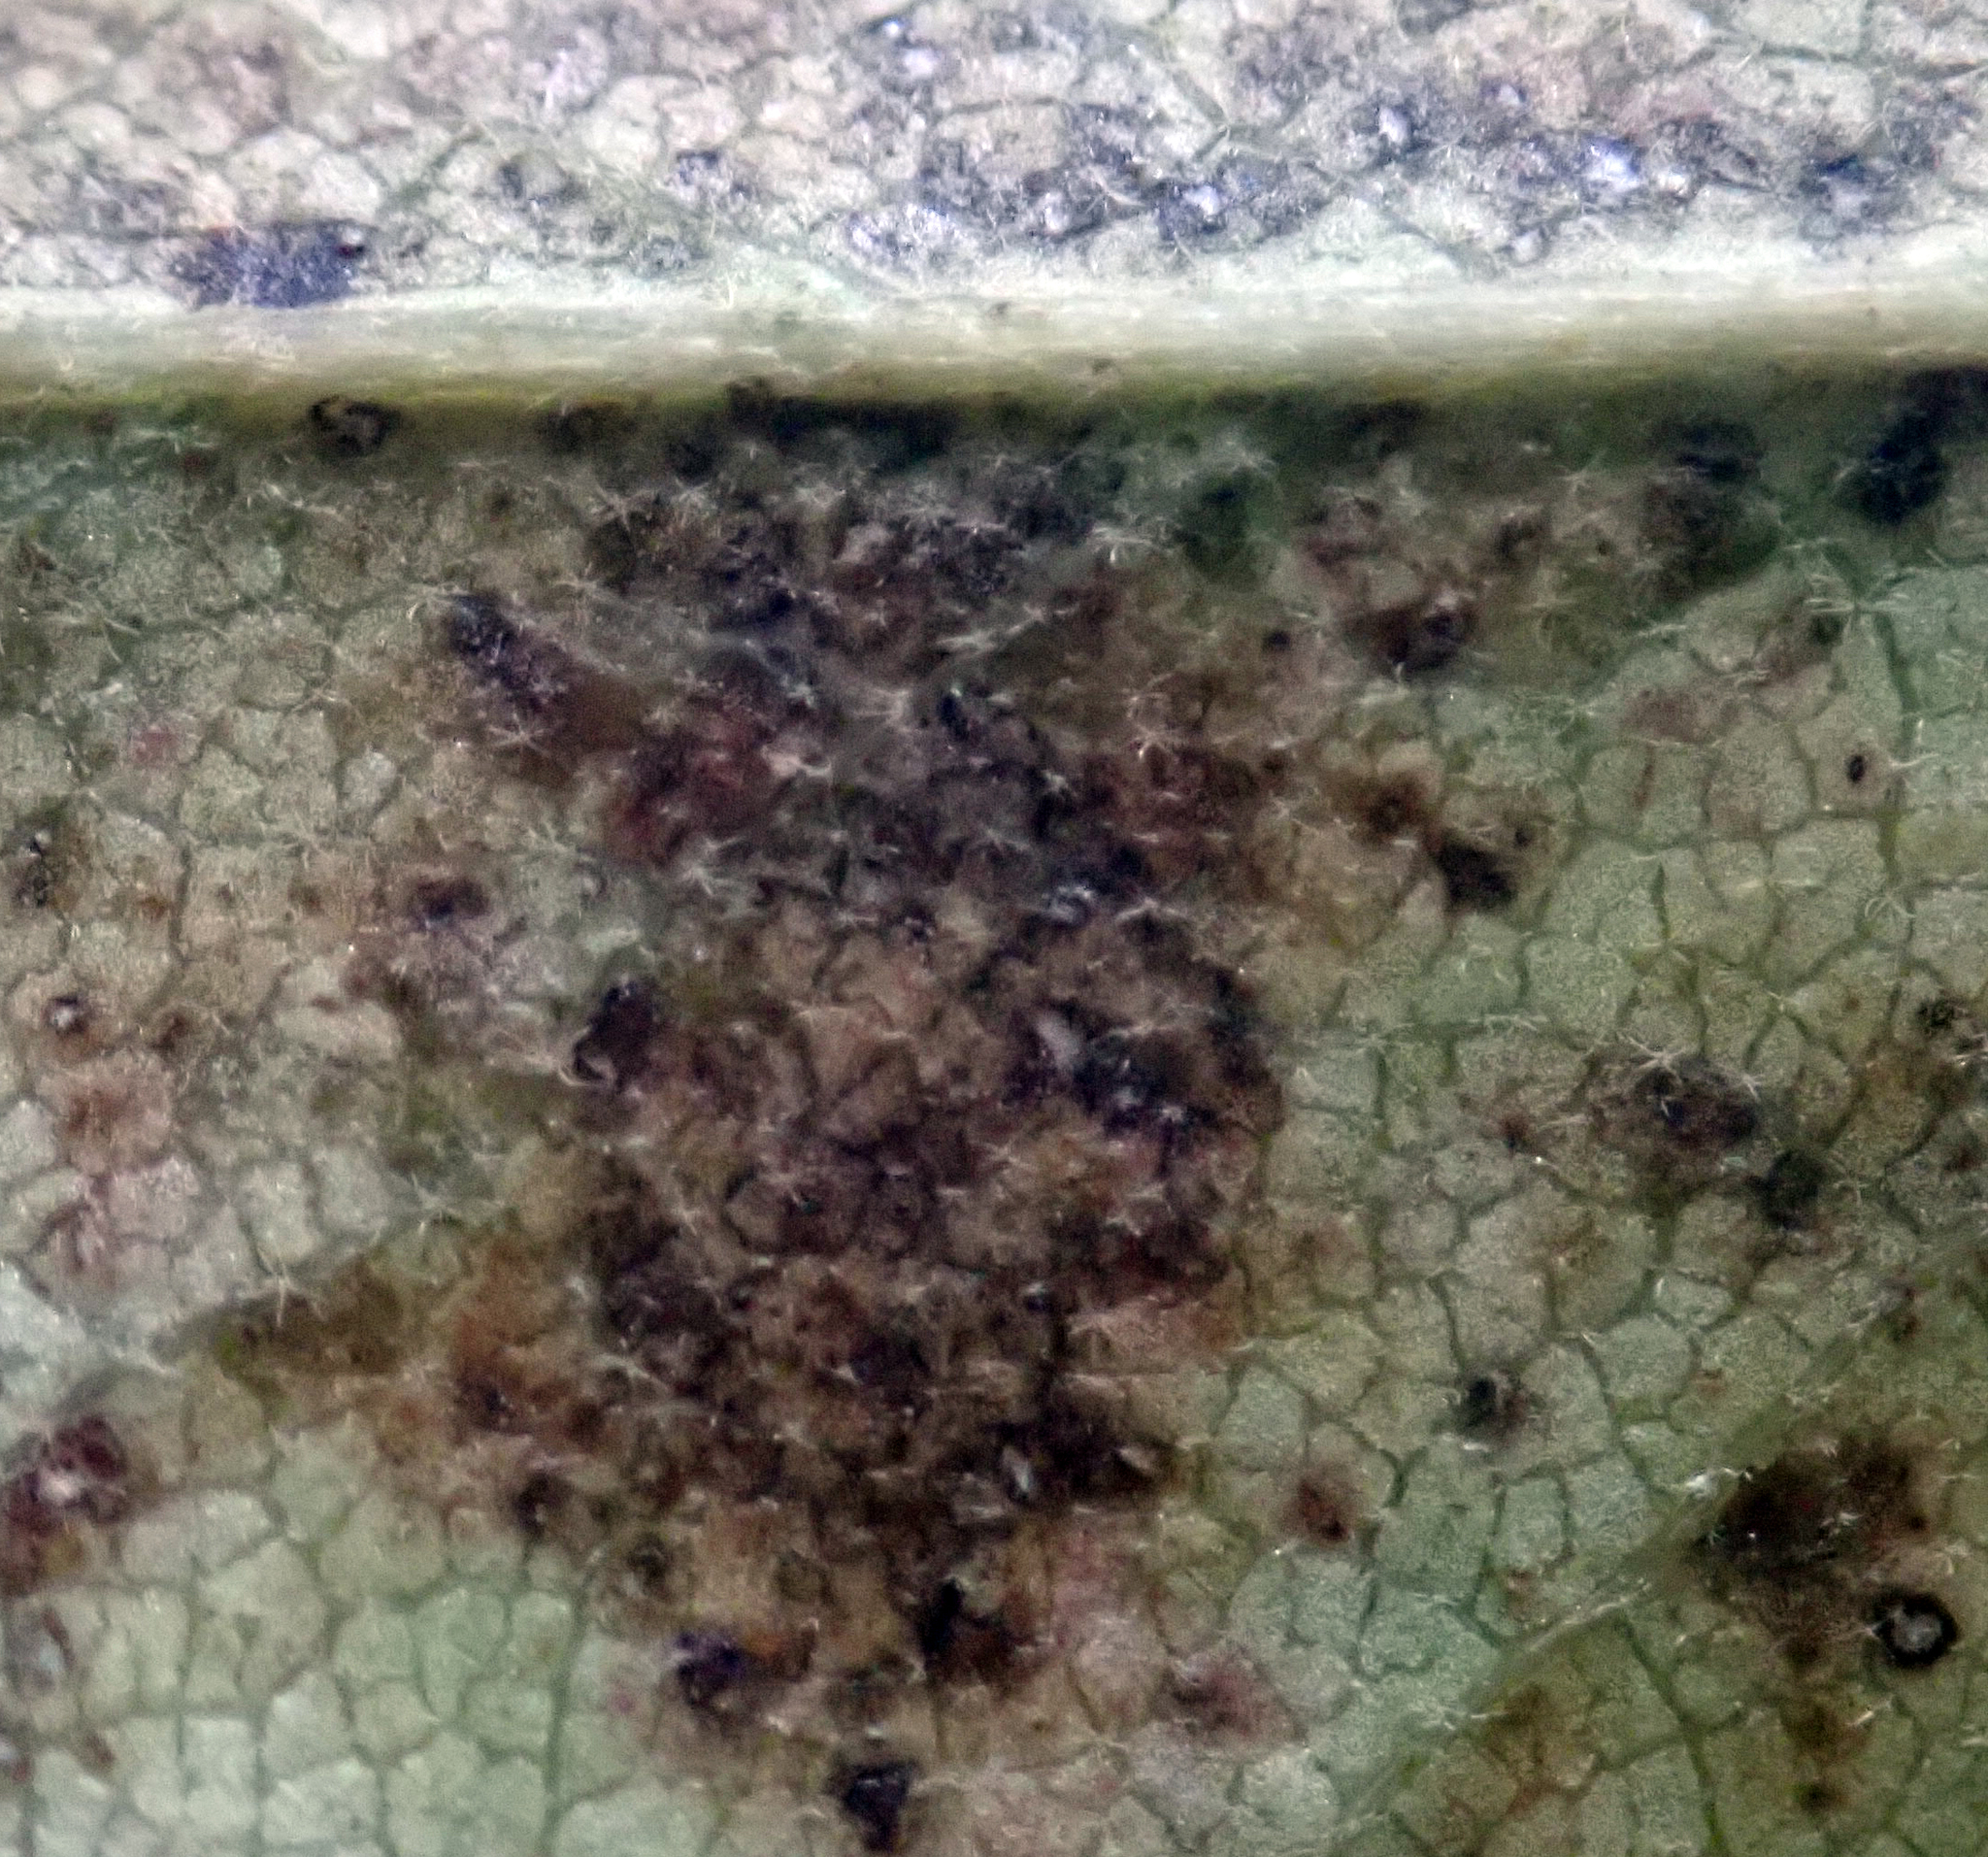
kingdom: Fungi
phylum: Basidiomycota
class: Pucciniomycetes
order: Pucciniales
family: Pucciniaceae
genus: Puccinia
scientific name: Puccinia plagianthi
